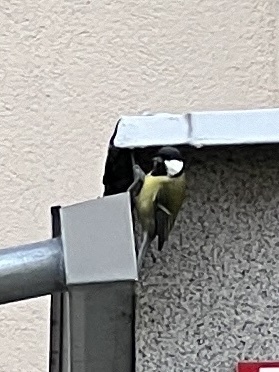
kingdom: Animalia
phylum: Chordata
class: Aves
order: Passeriformes
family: Paridae
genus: Parus
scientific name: Parus major
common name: Great tit
